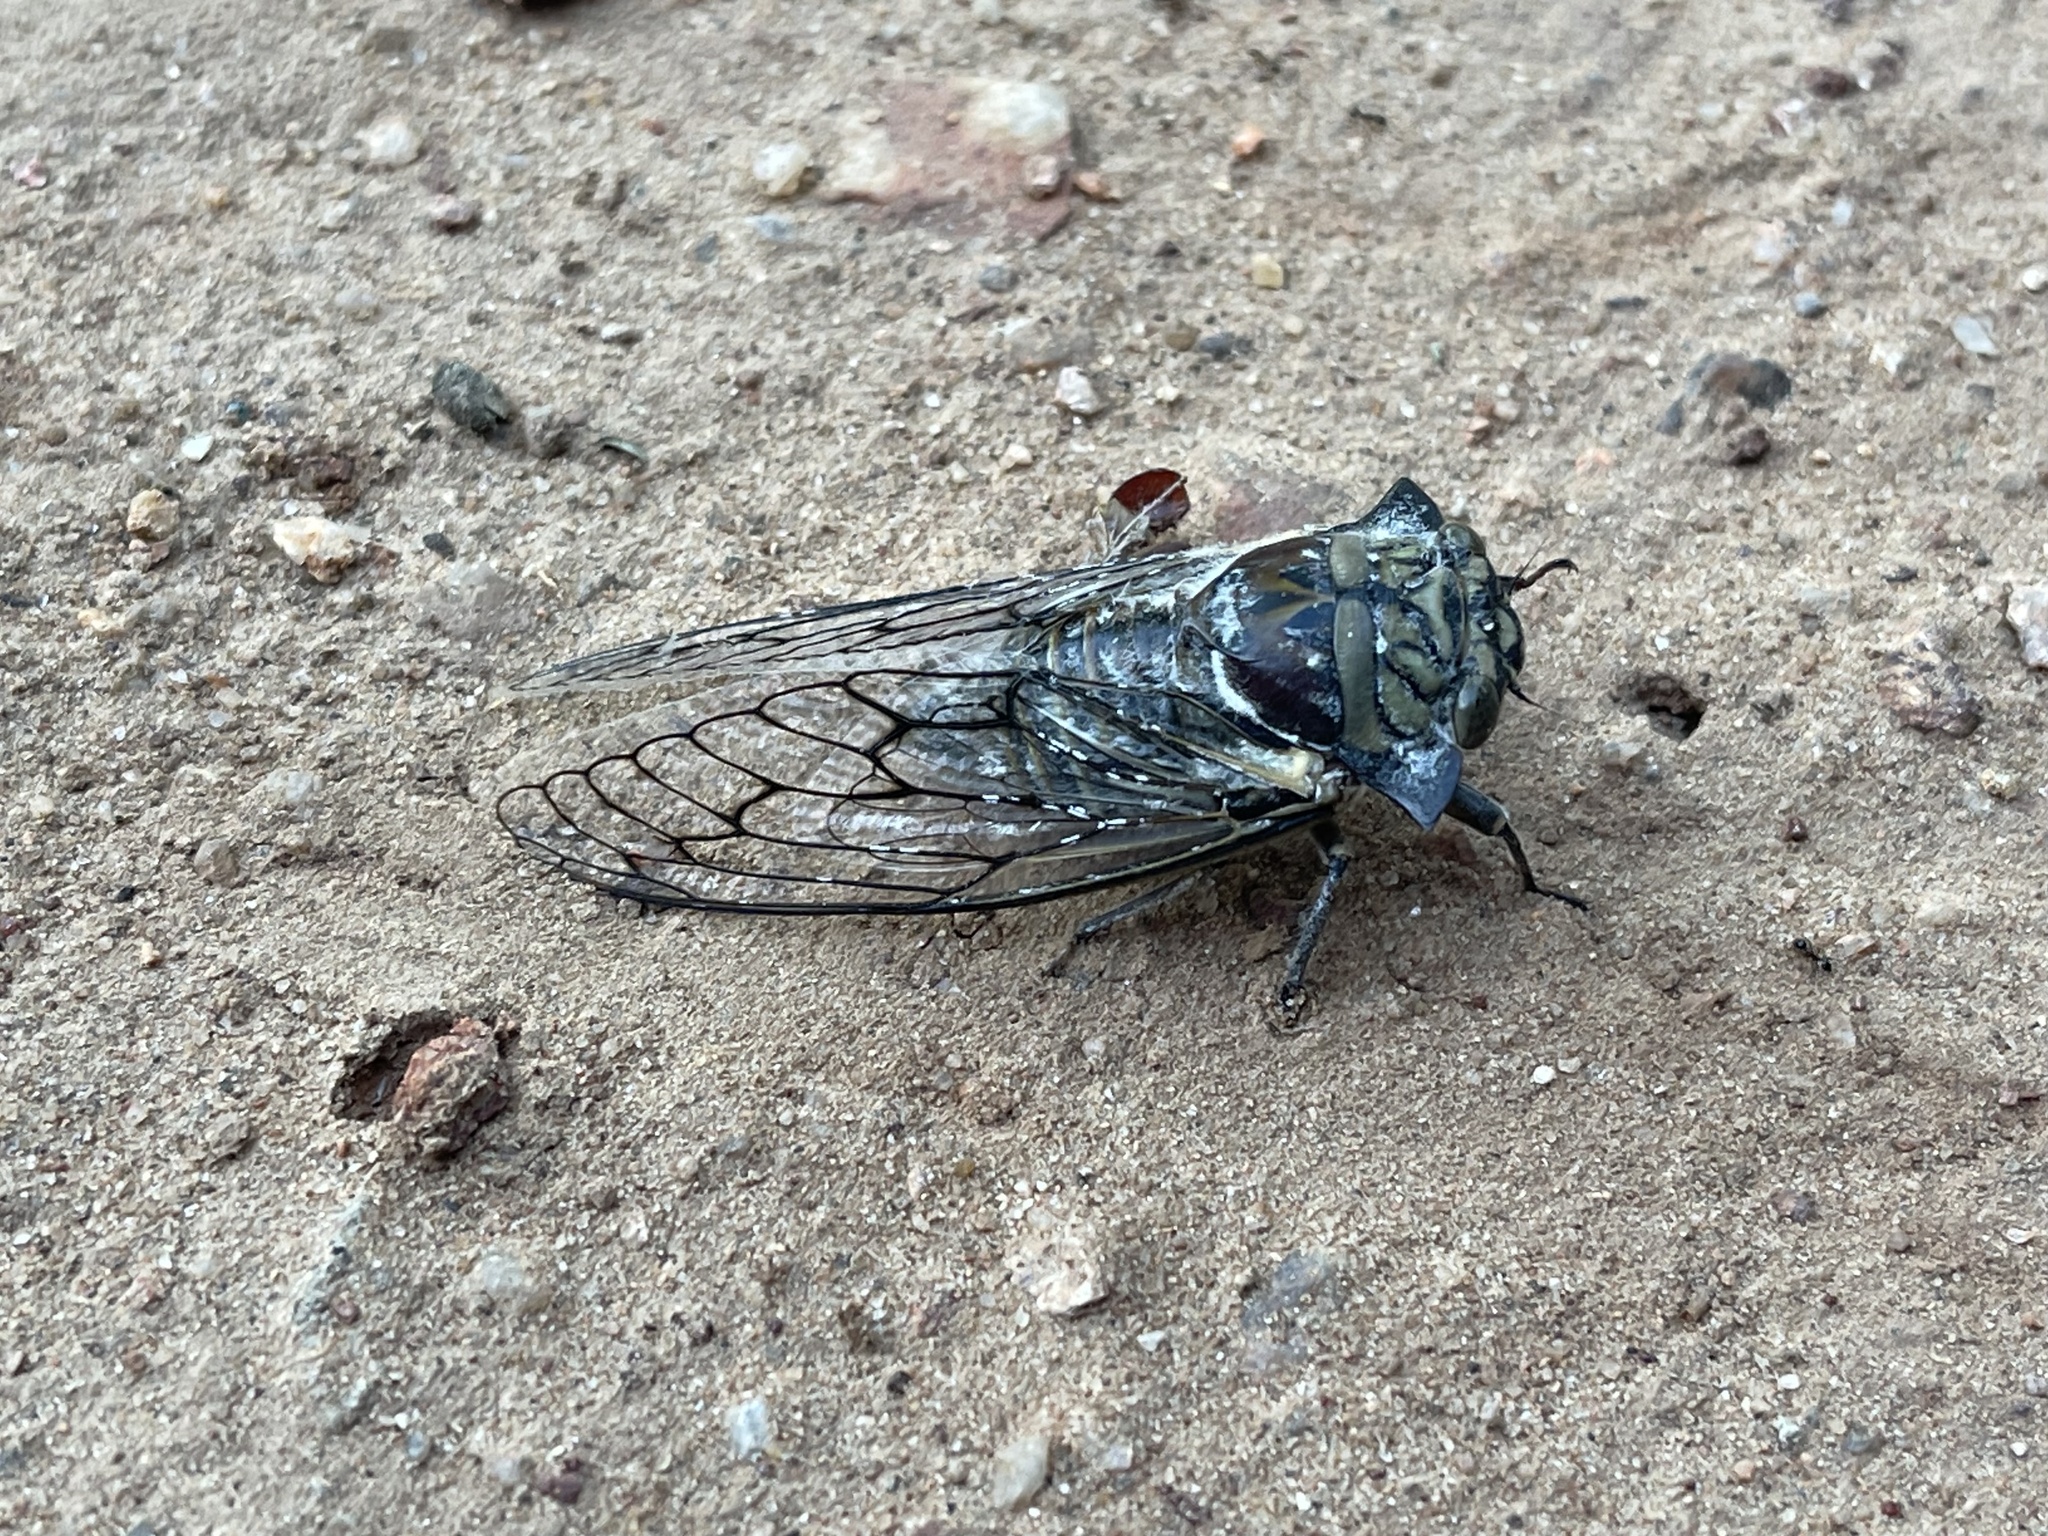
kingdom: Animalia
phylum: Arthropoda
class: Insecta
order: Hemiptera
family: Cicadidae
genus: Oxypleura
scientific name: Oxypleura quadraticollis
